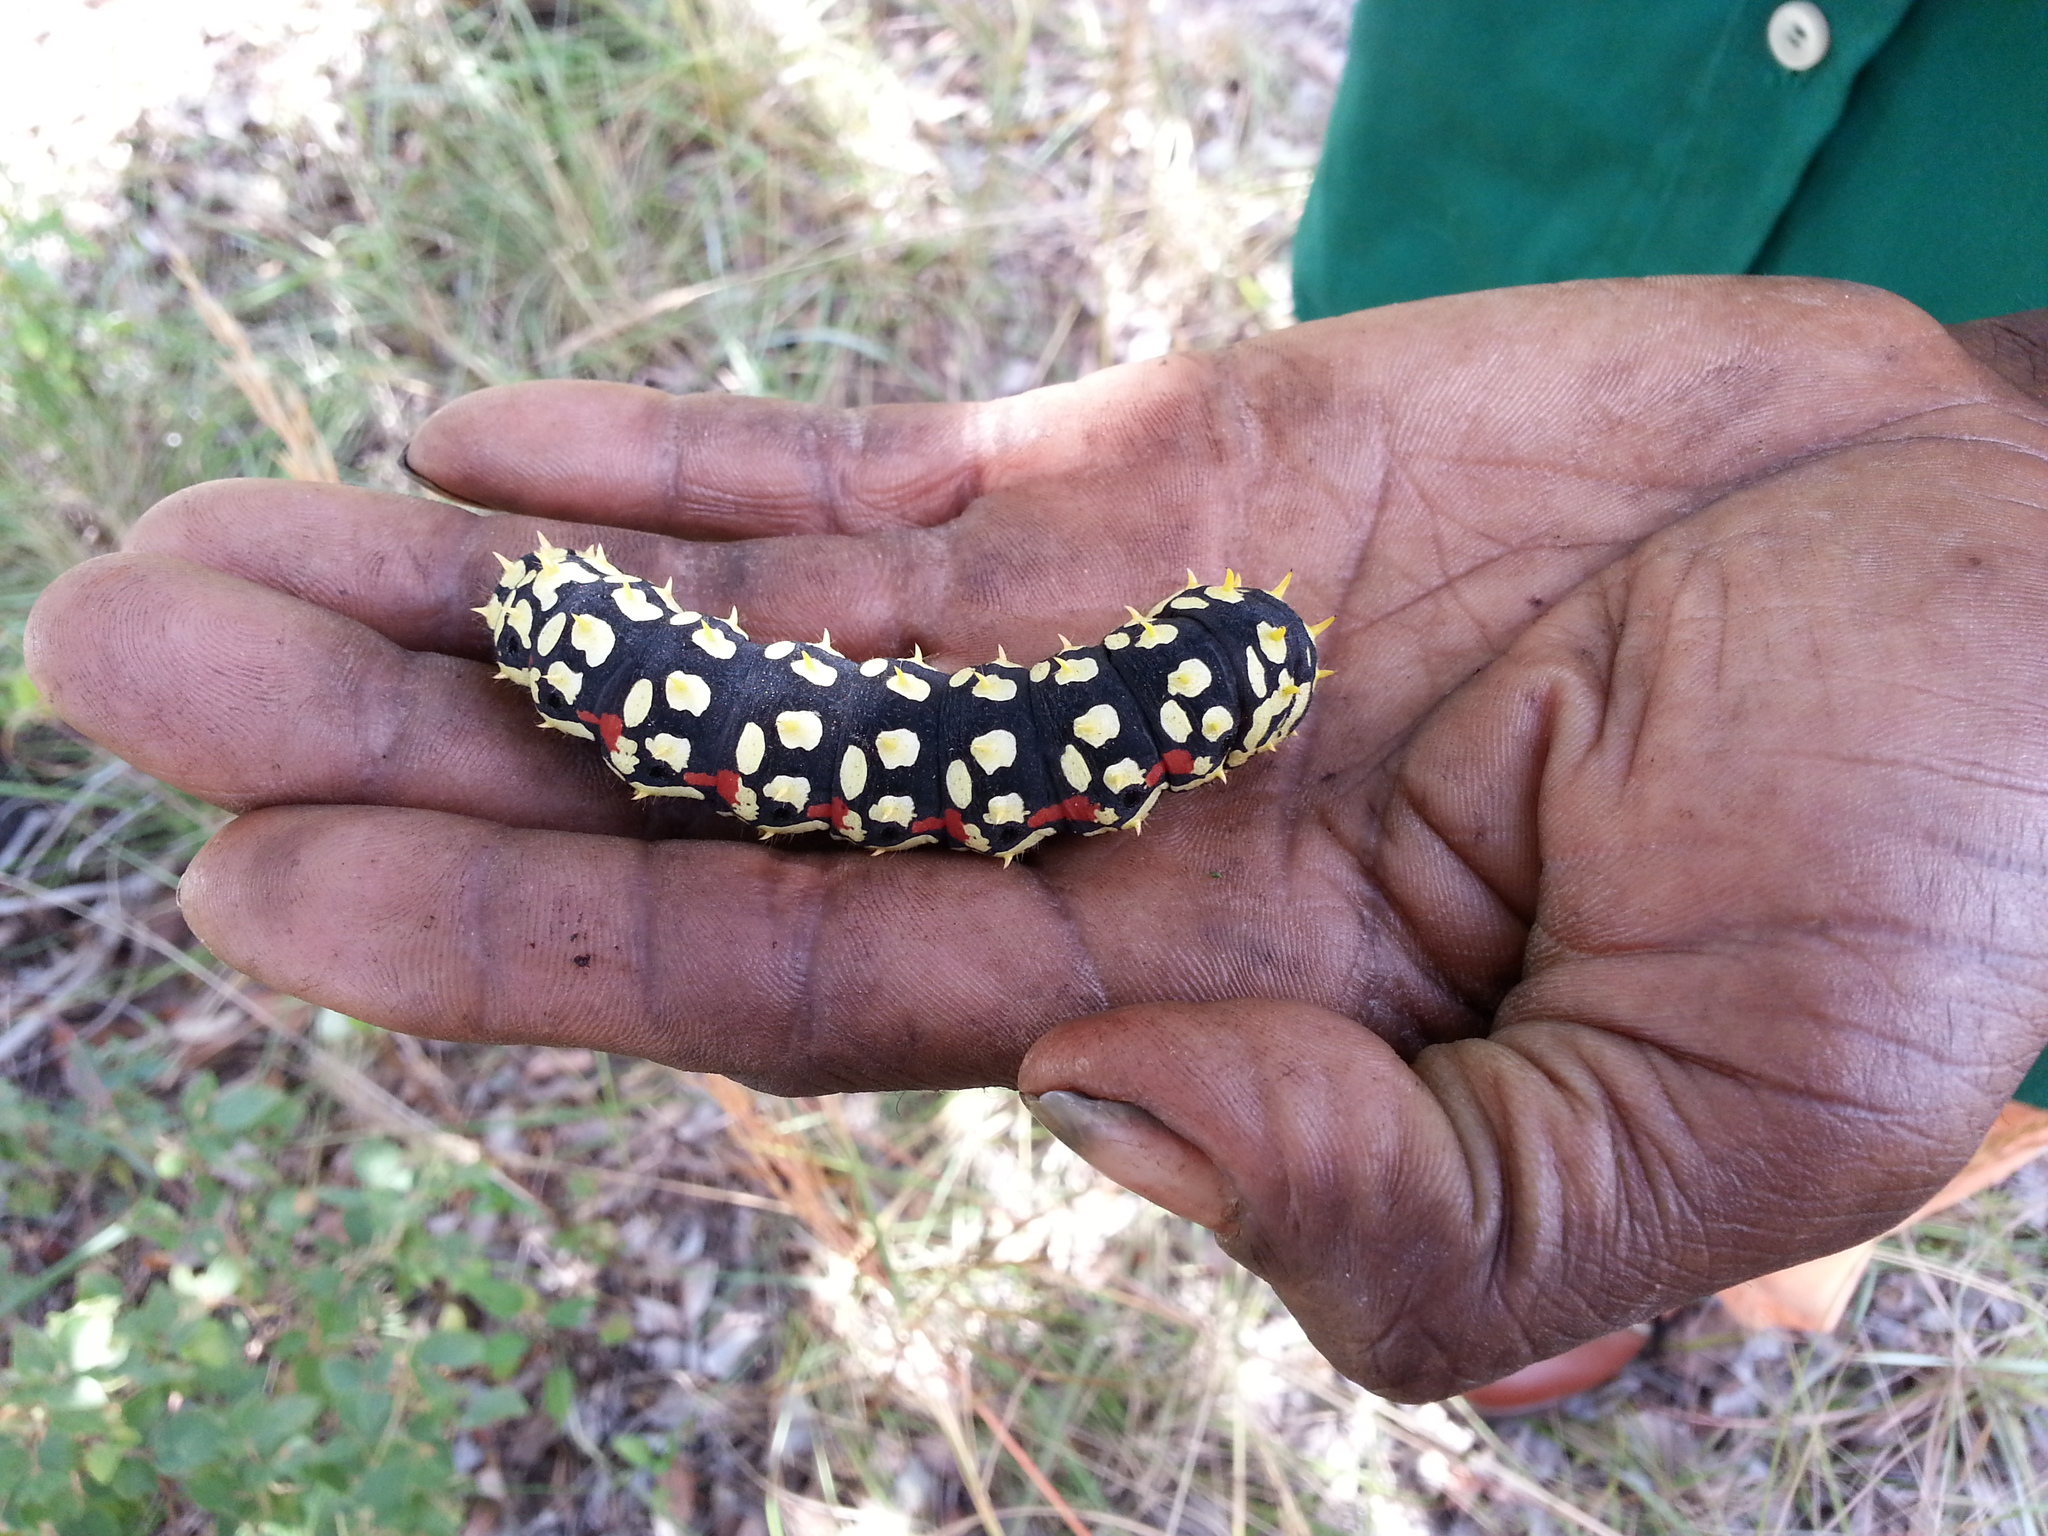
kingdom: Animalia
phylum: Arthropoda
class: Insecta
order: Lepidoptera
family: Saturniidae
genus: Bunaea
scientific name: Bunaea aslauga
